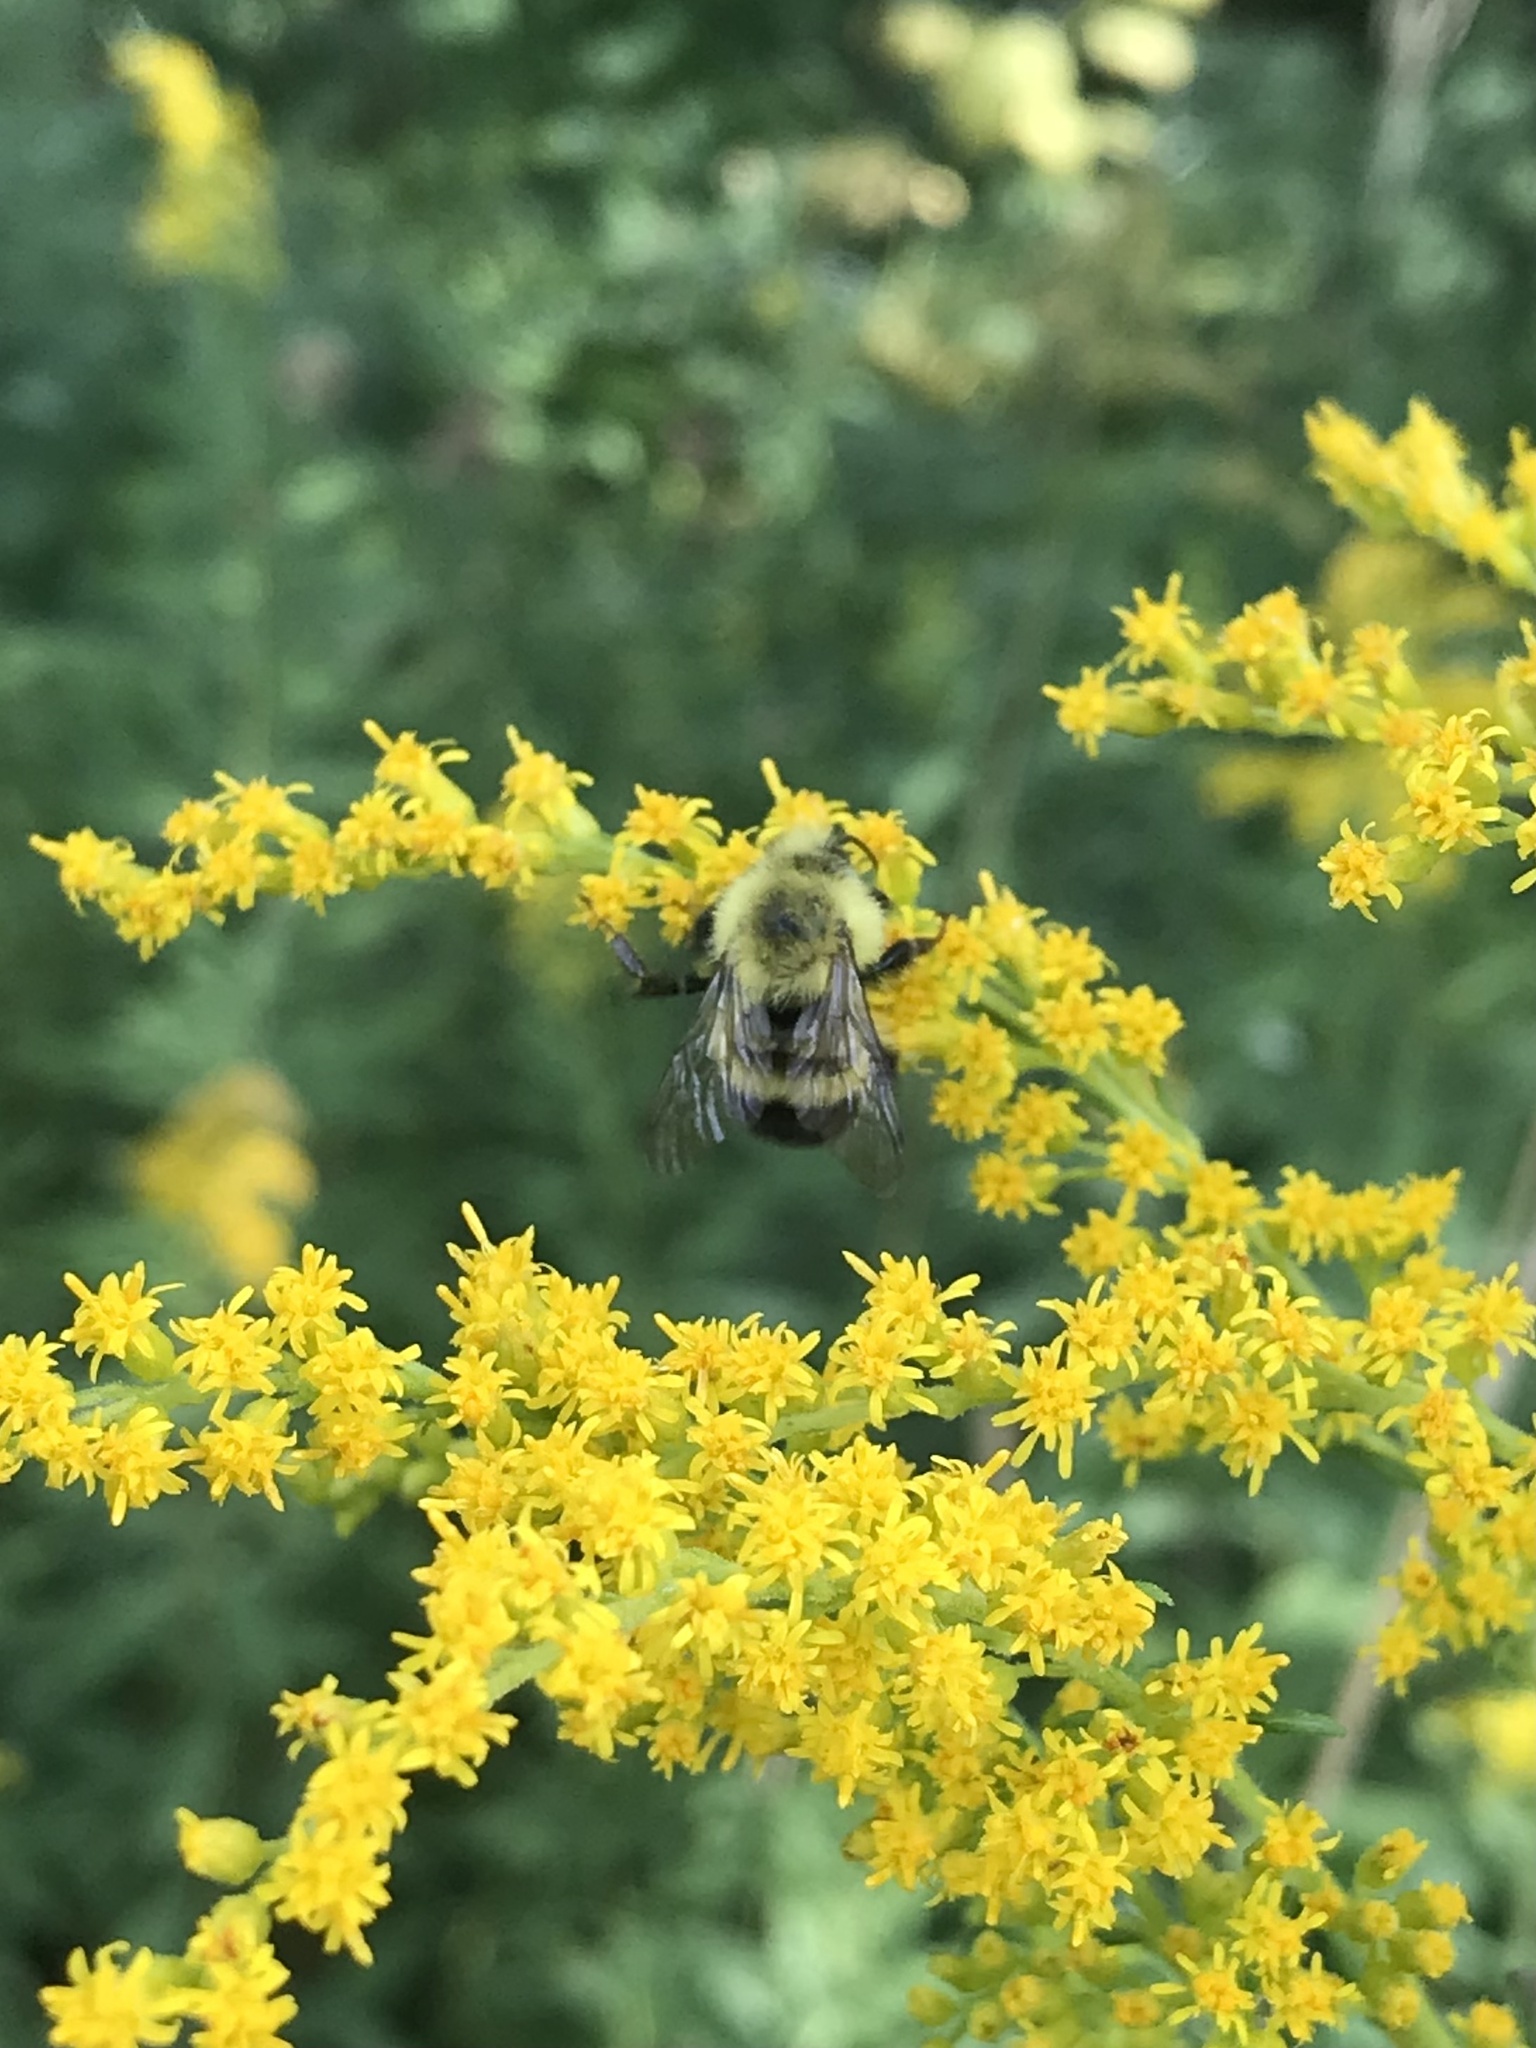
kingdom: Animalia
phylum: Arthropoda
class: Insecta
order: Hymenoptera
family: Apidae
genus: Bombus
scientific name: Bombus vagans
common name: Half-black bumble bee
